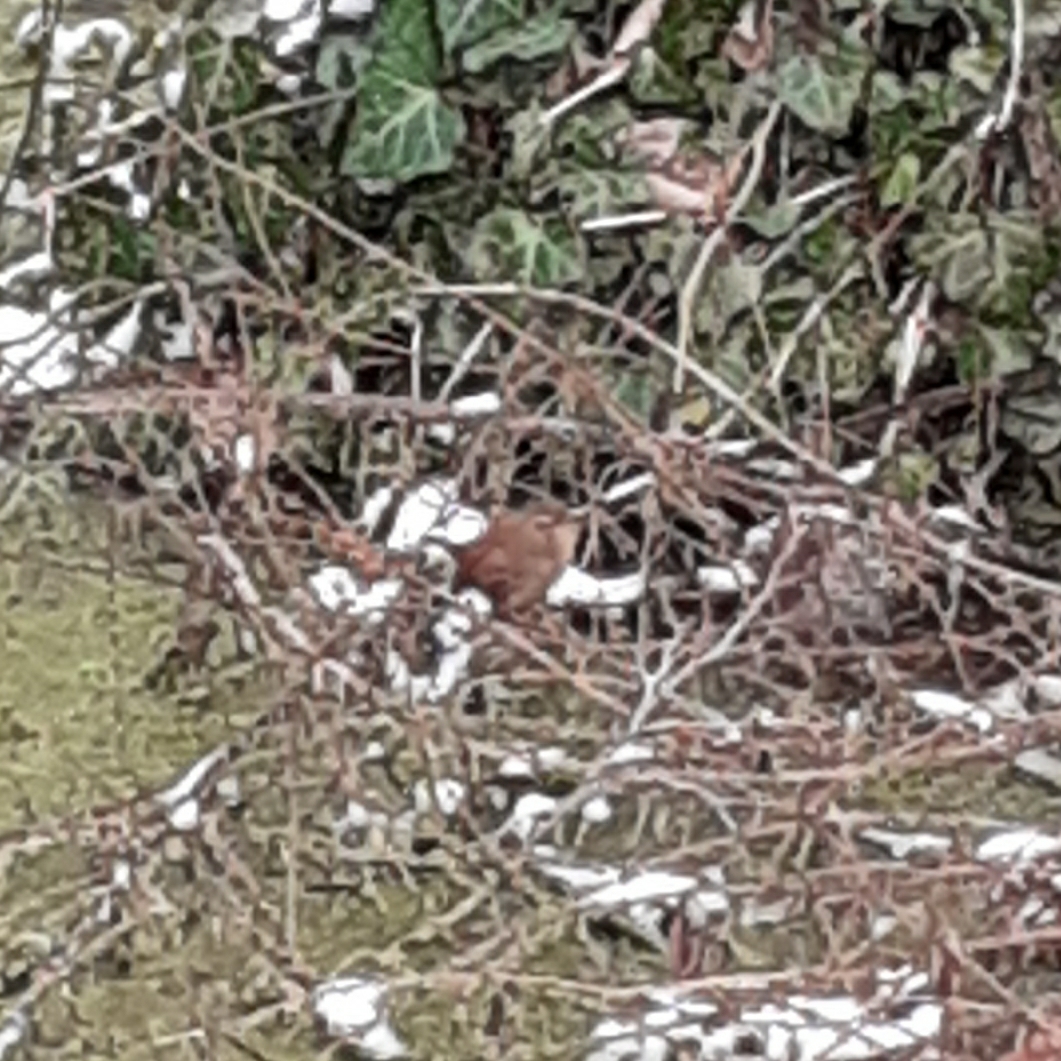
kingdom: Animalia
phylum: Chordata
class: Aves
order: Passeriformes
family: Troglodytidae
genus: Troglodytes
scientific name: Troglodytes troglodytes
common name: Eurasian wren
